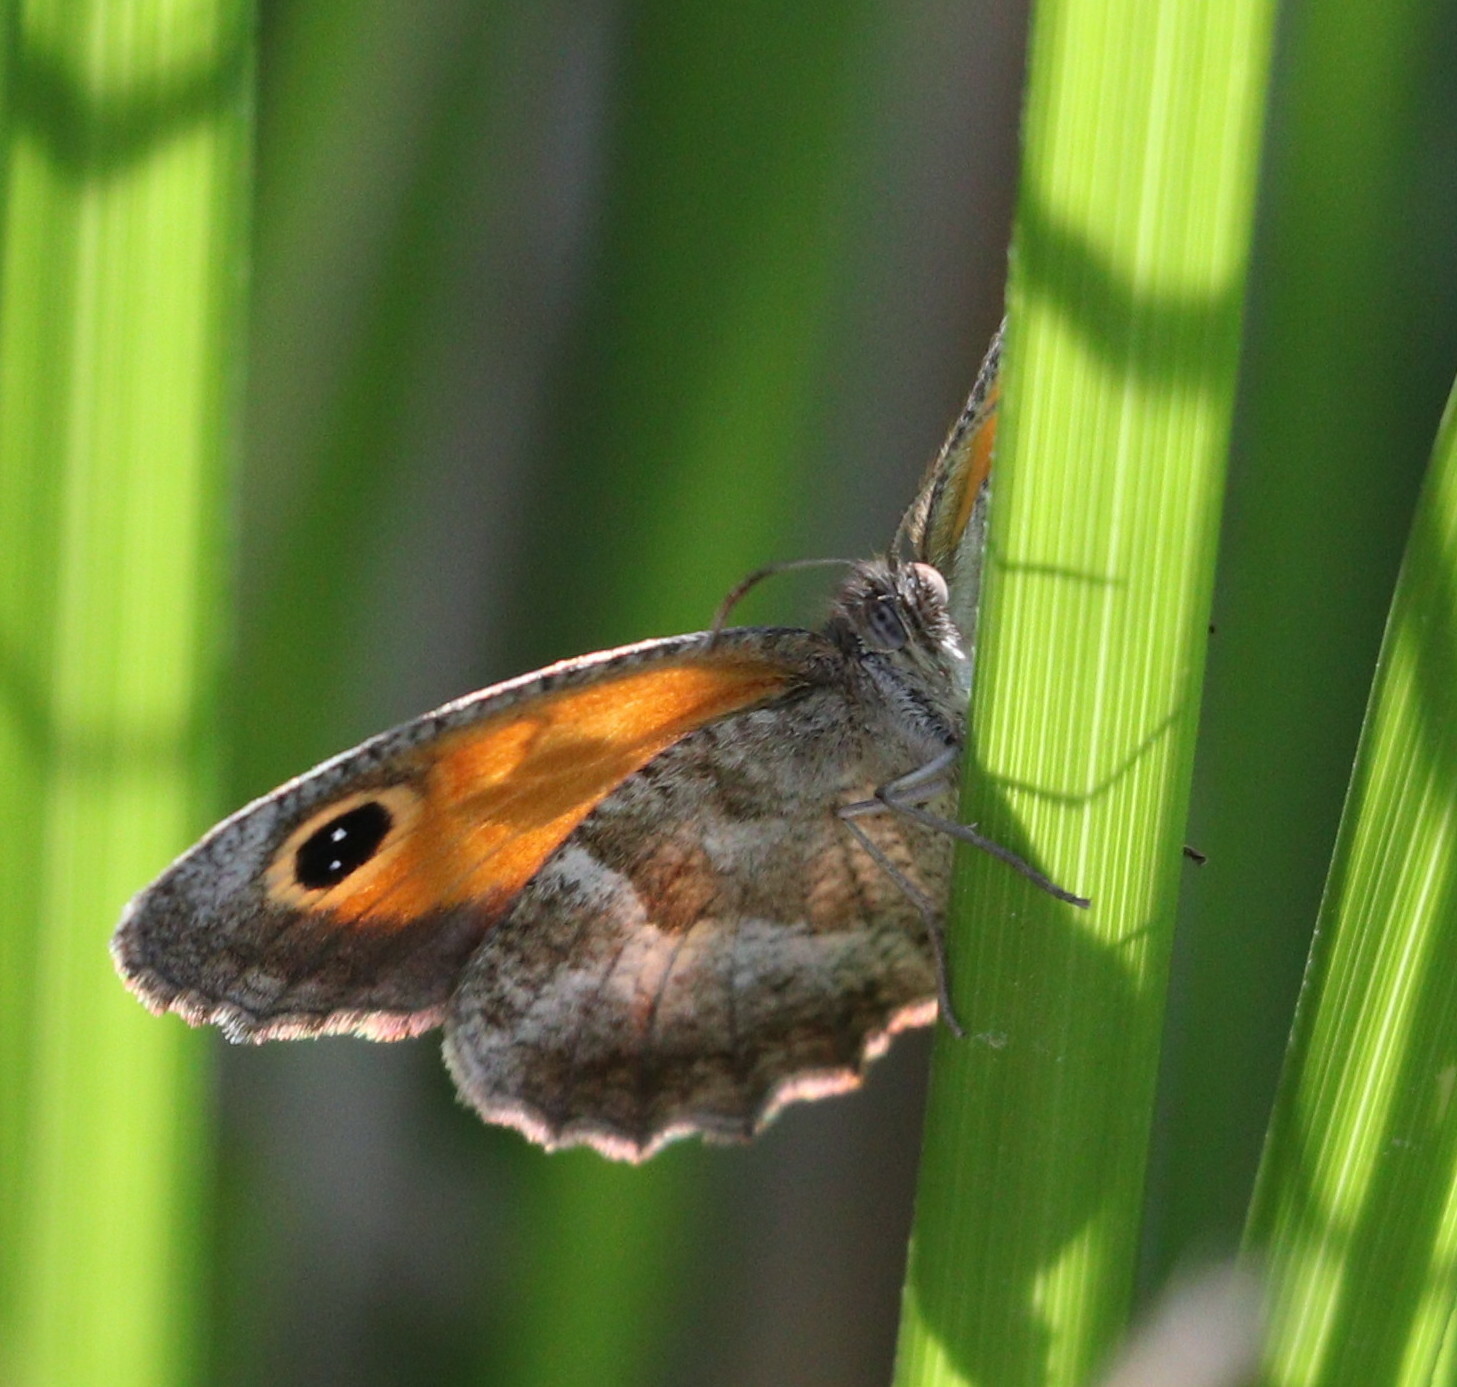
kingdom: Animalia
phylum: Arthropoda
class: Insecta
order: Lepidoptera
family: Nymphalidae
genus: Pyronia
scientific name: Pyronia cecilia
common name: Southern gatekeeper
